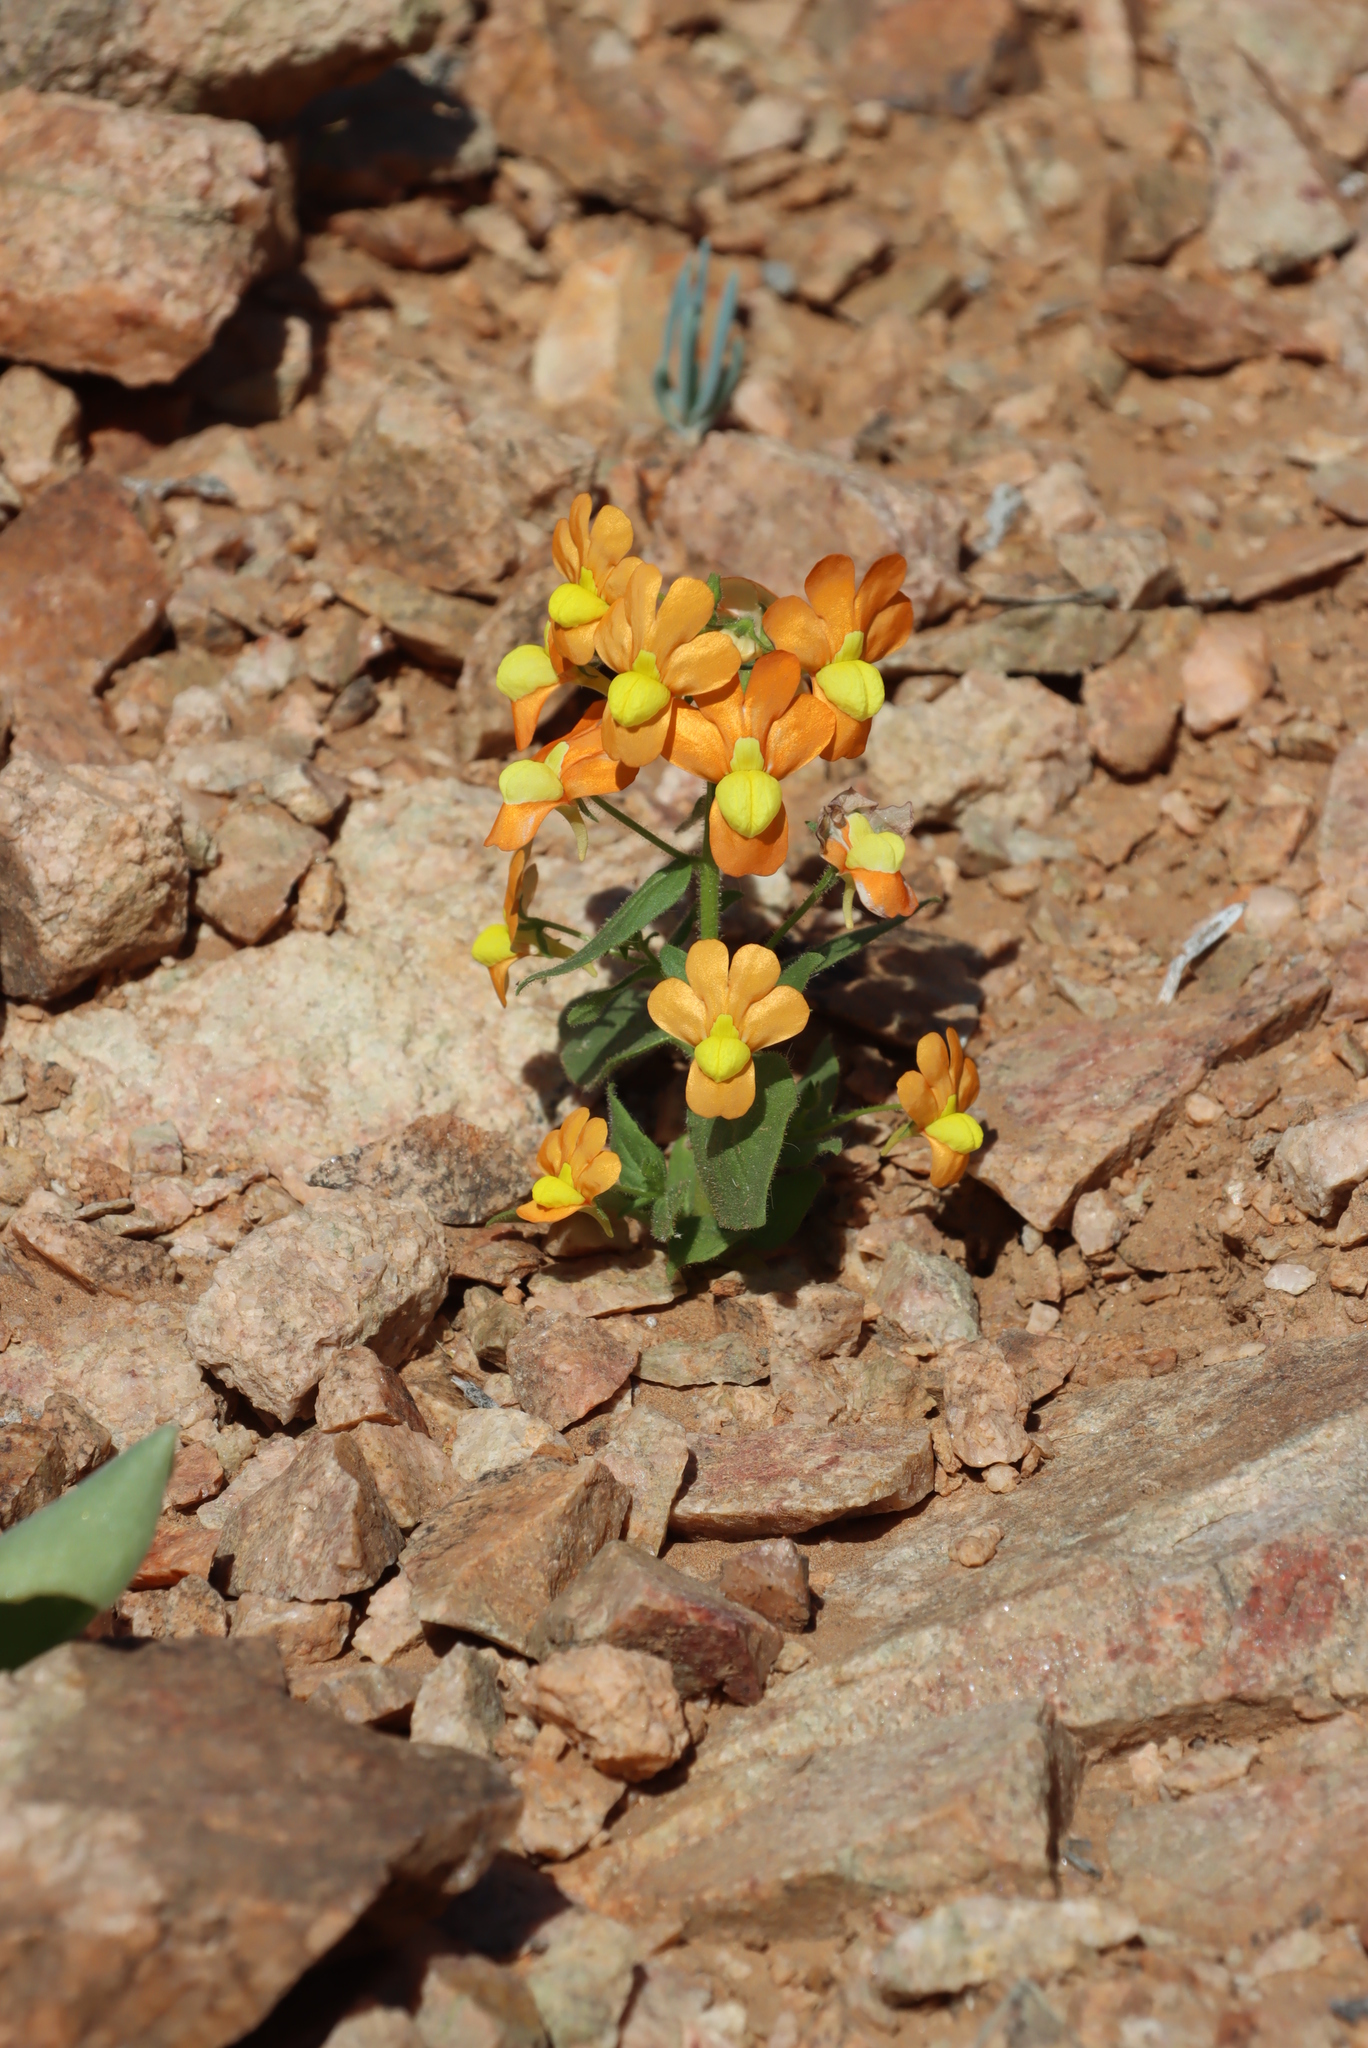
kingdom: Plantae
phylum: Tracheophyta
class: Magnoliopsida
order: Lamiales
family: Scrophulariaceae
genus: Nemesia
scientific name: Nemesia williamsonii
